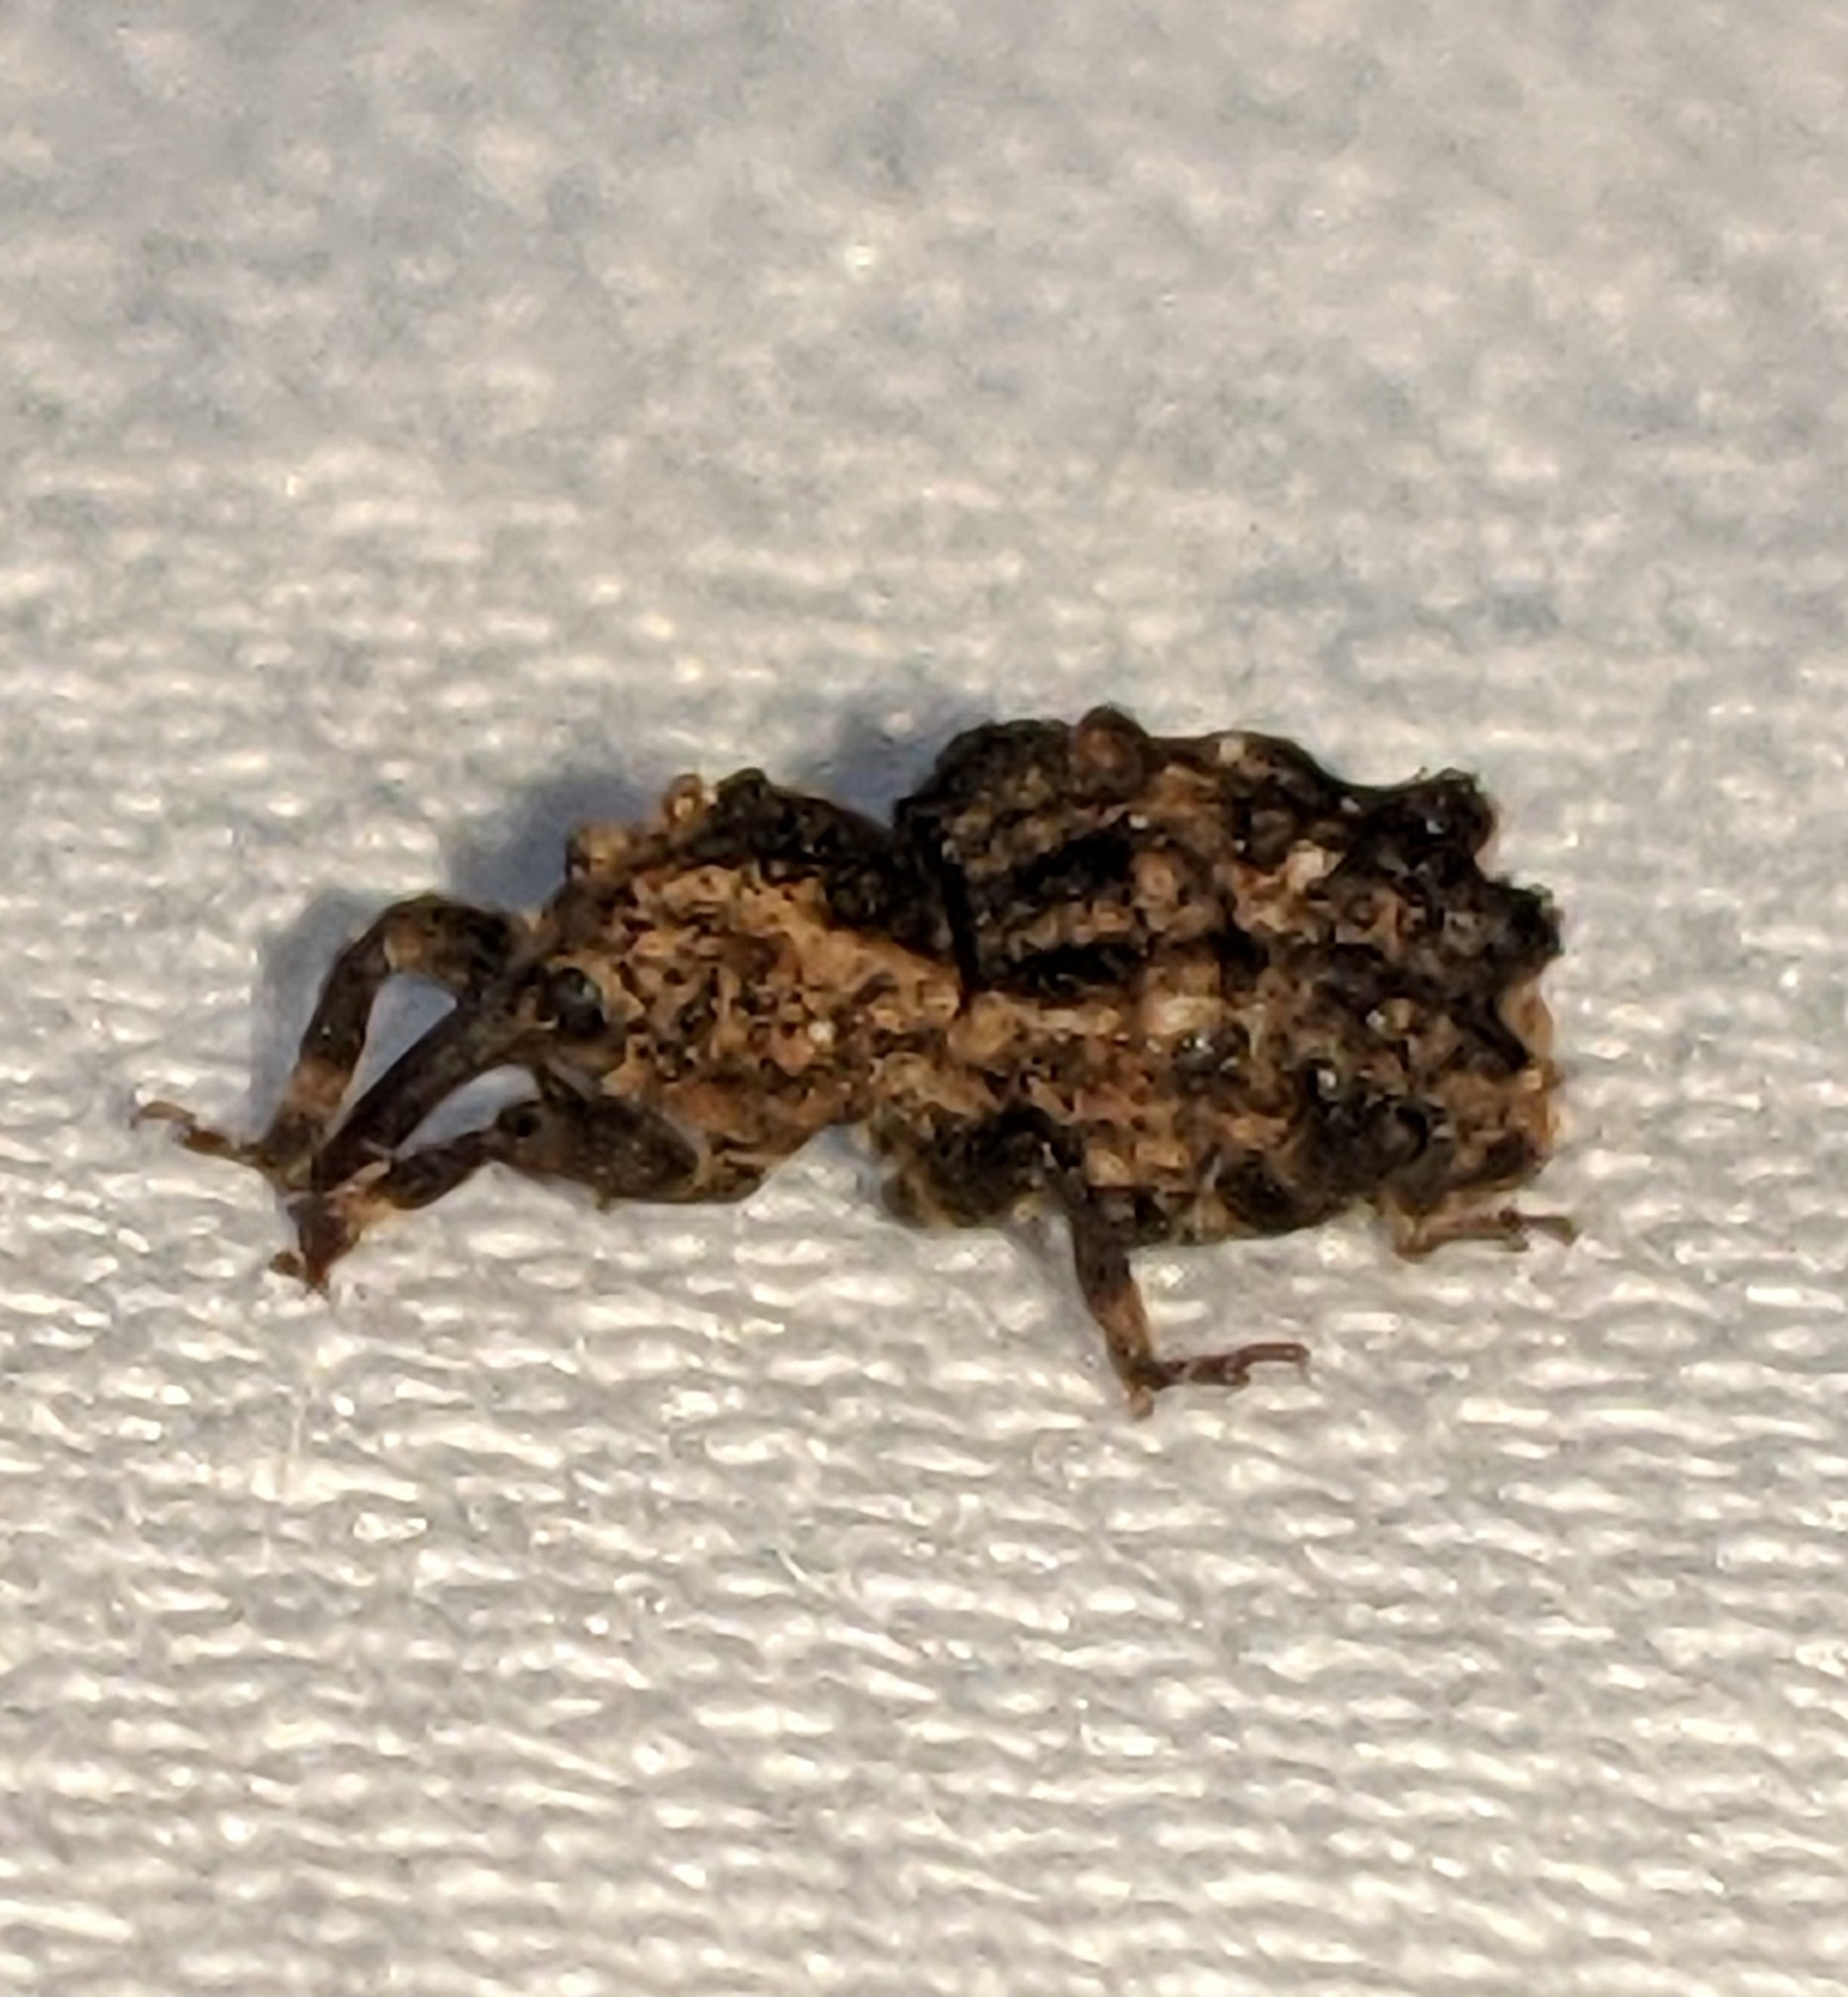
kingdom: Animalia
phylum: Arthropoda
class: Insecta
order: Coleoptera
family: Curculionidae
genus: Aparopion
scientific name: Aparopion horridus
